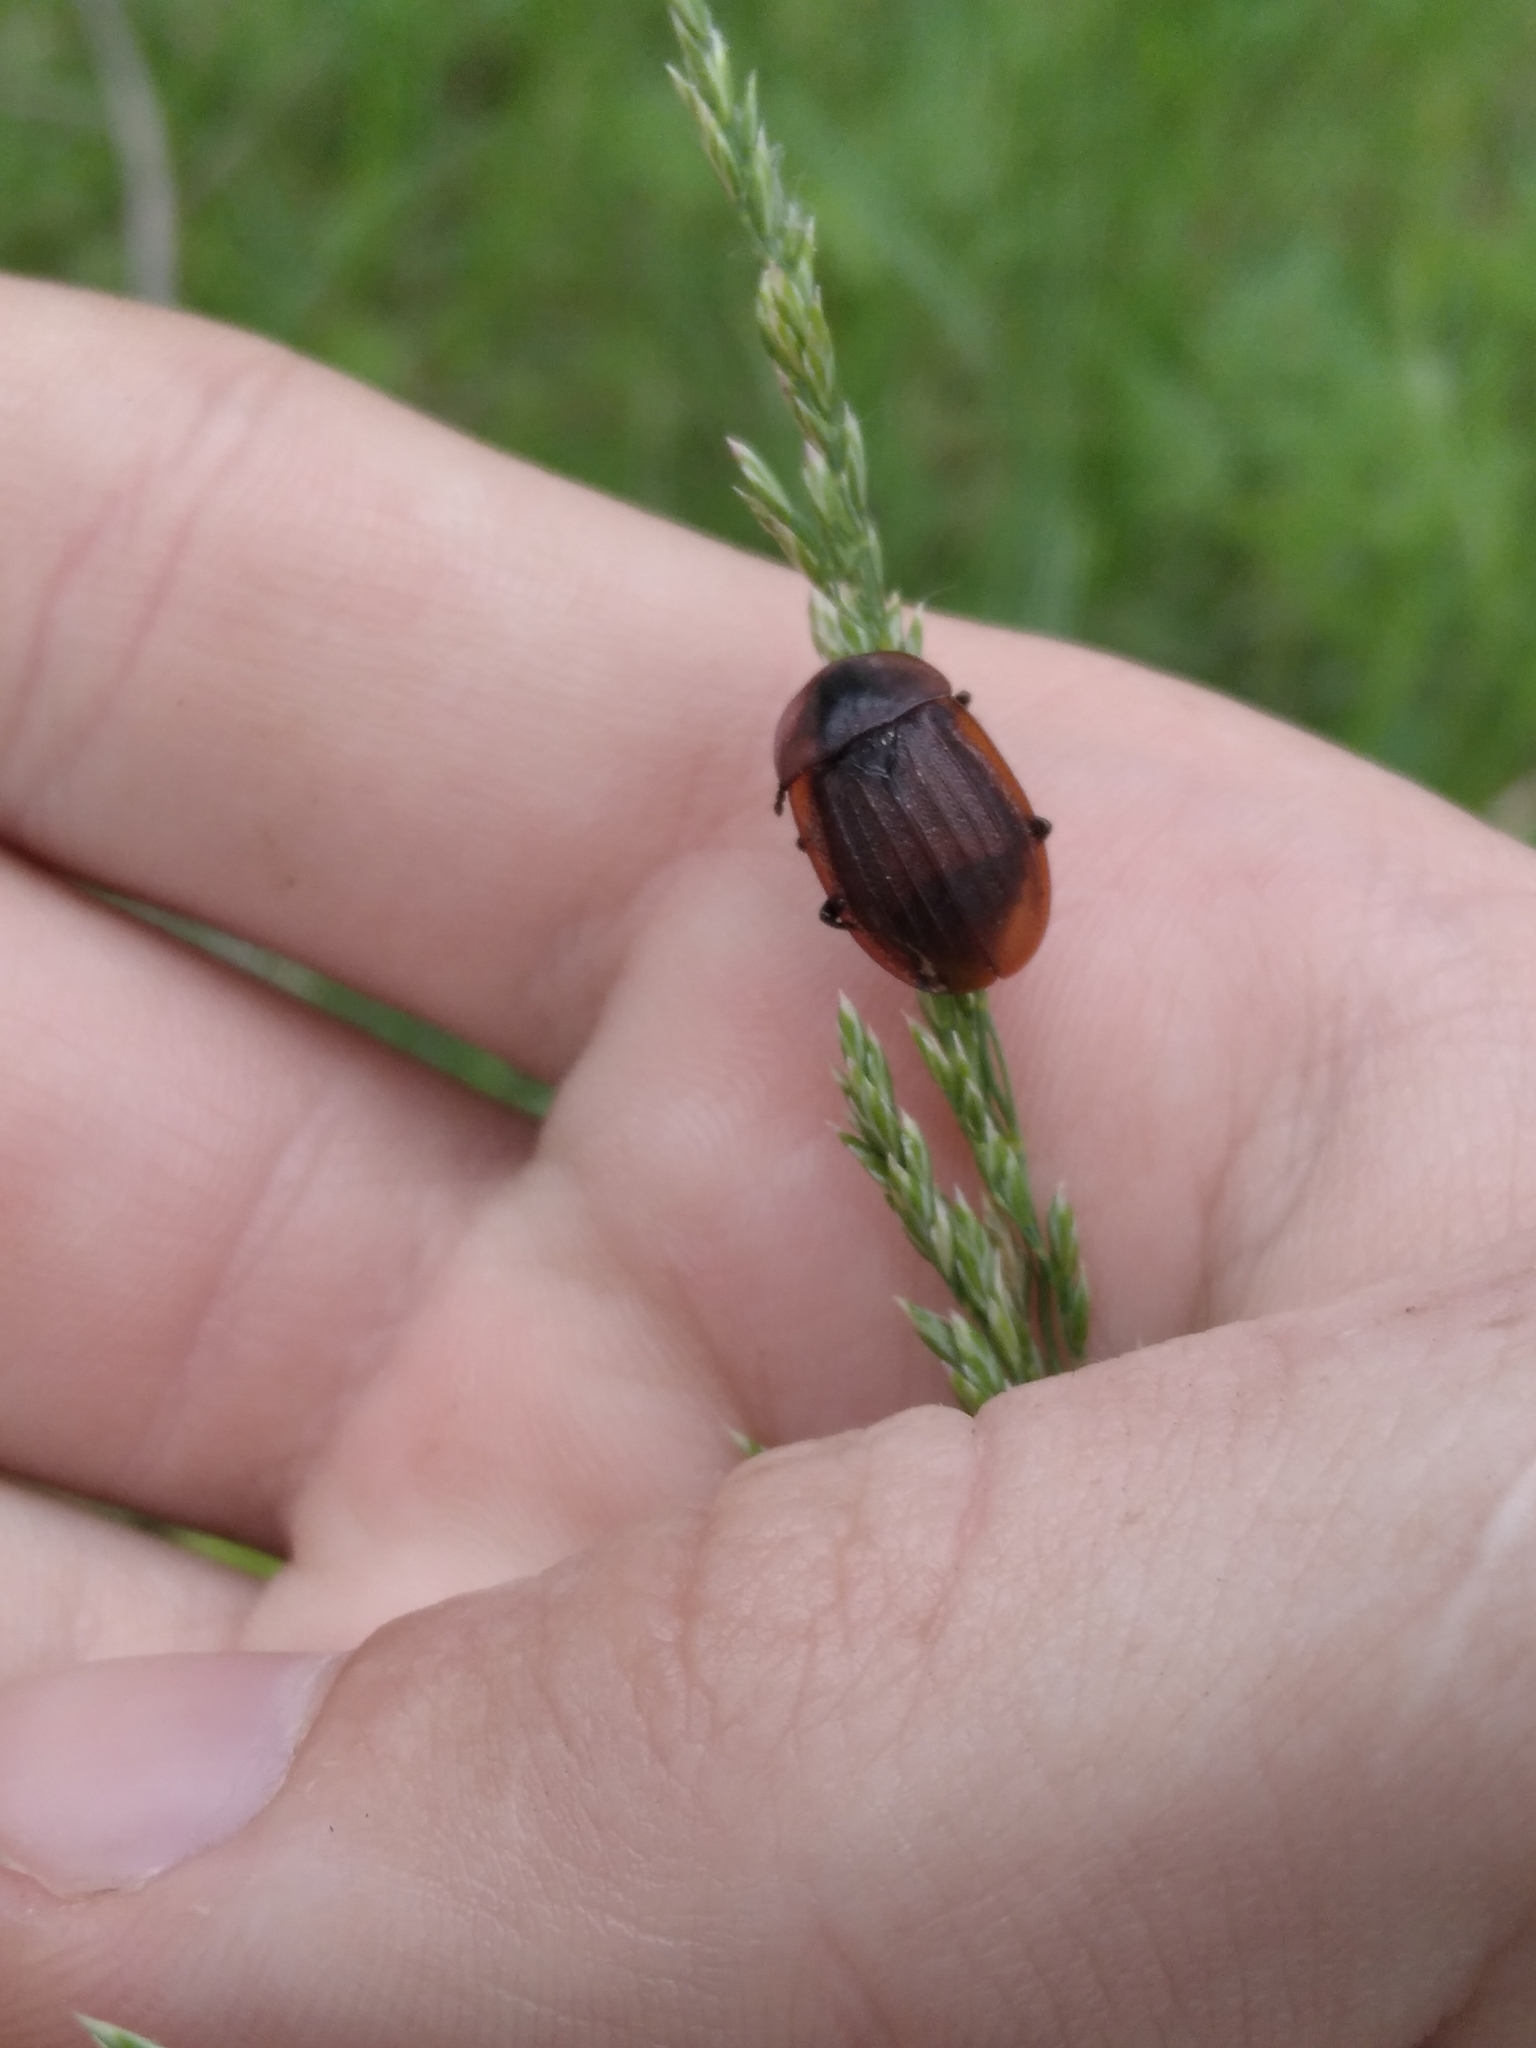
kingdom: Animalia
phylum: Arthropoda
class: Insecta
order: Coleoptera
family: Staphylinidae
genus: Silpha
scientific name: Silpha atrata
